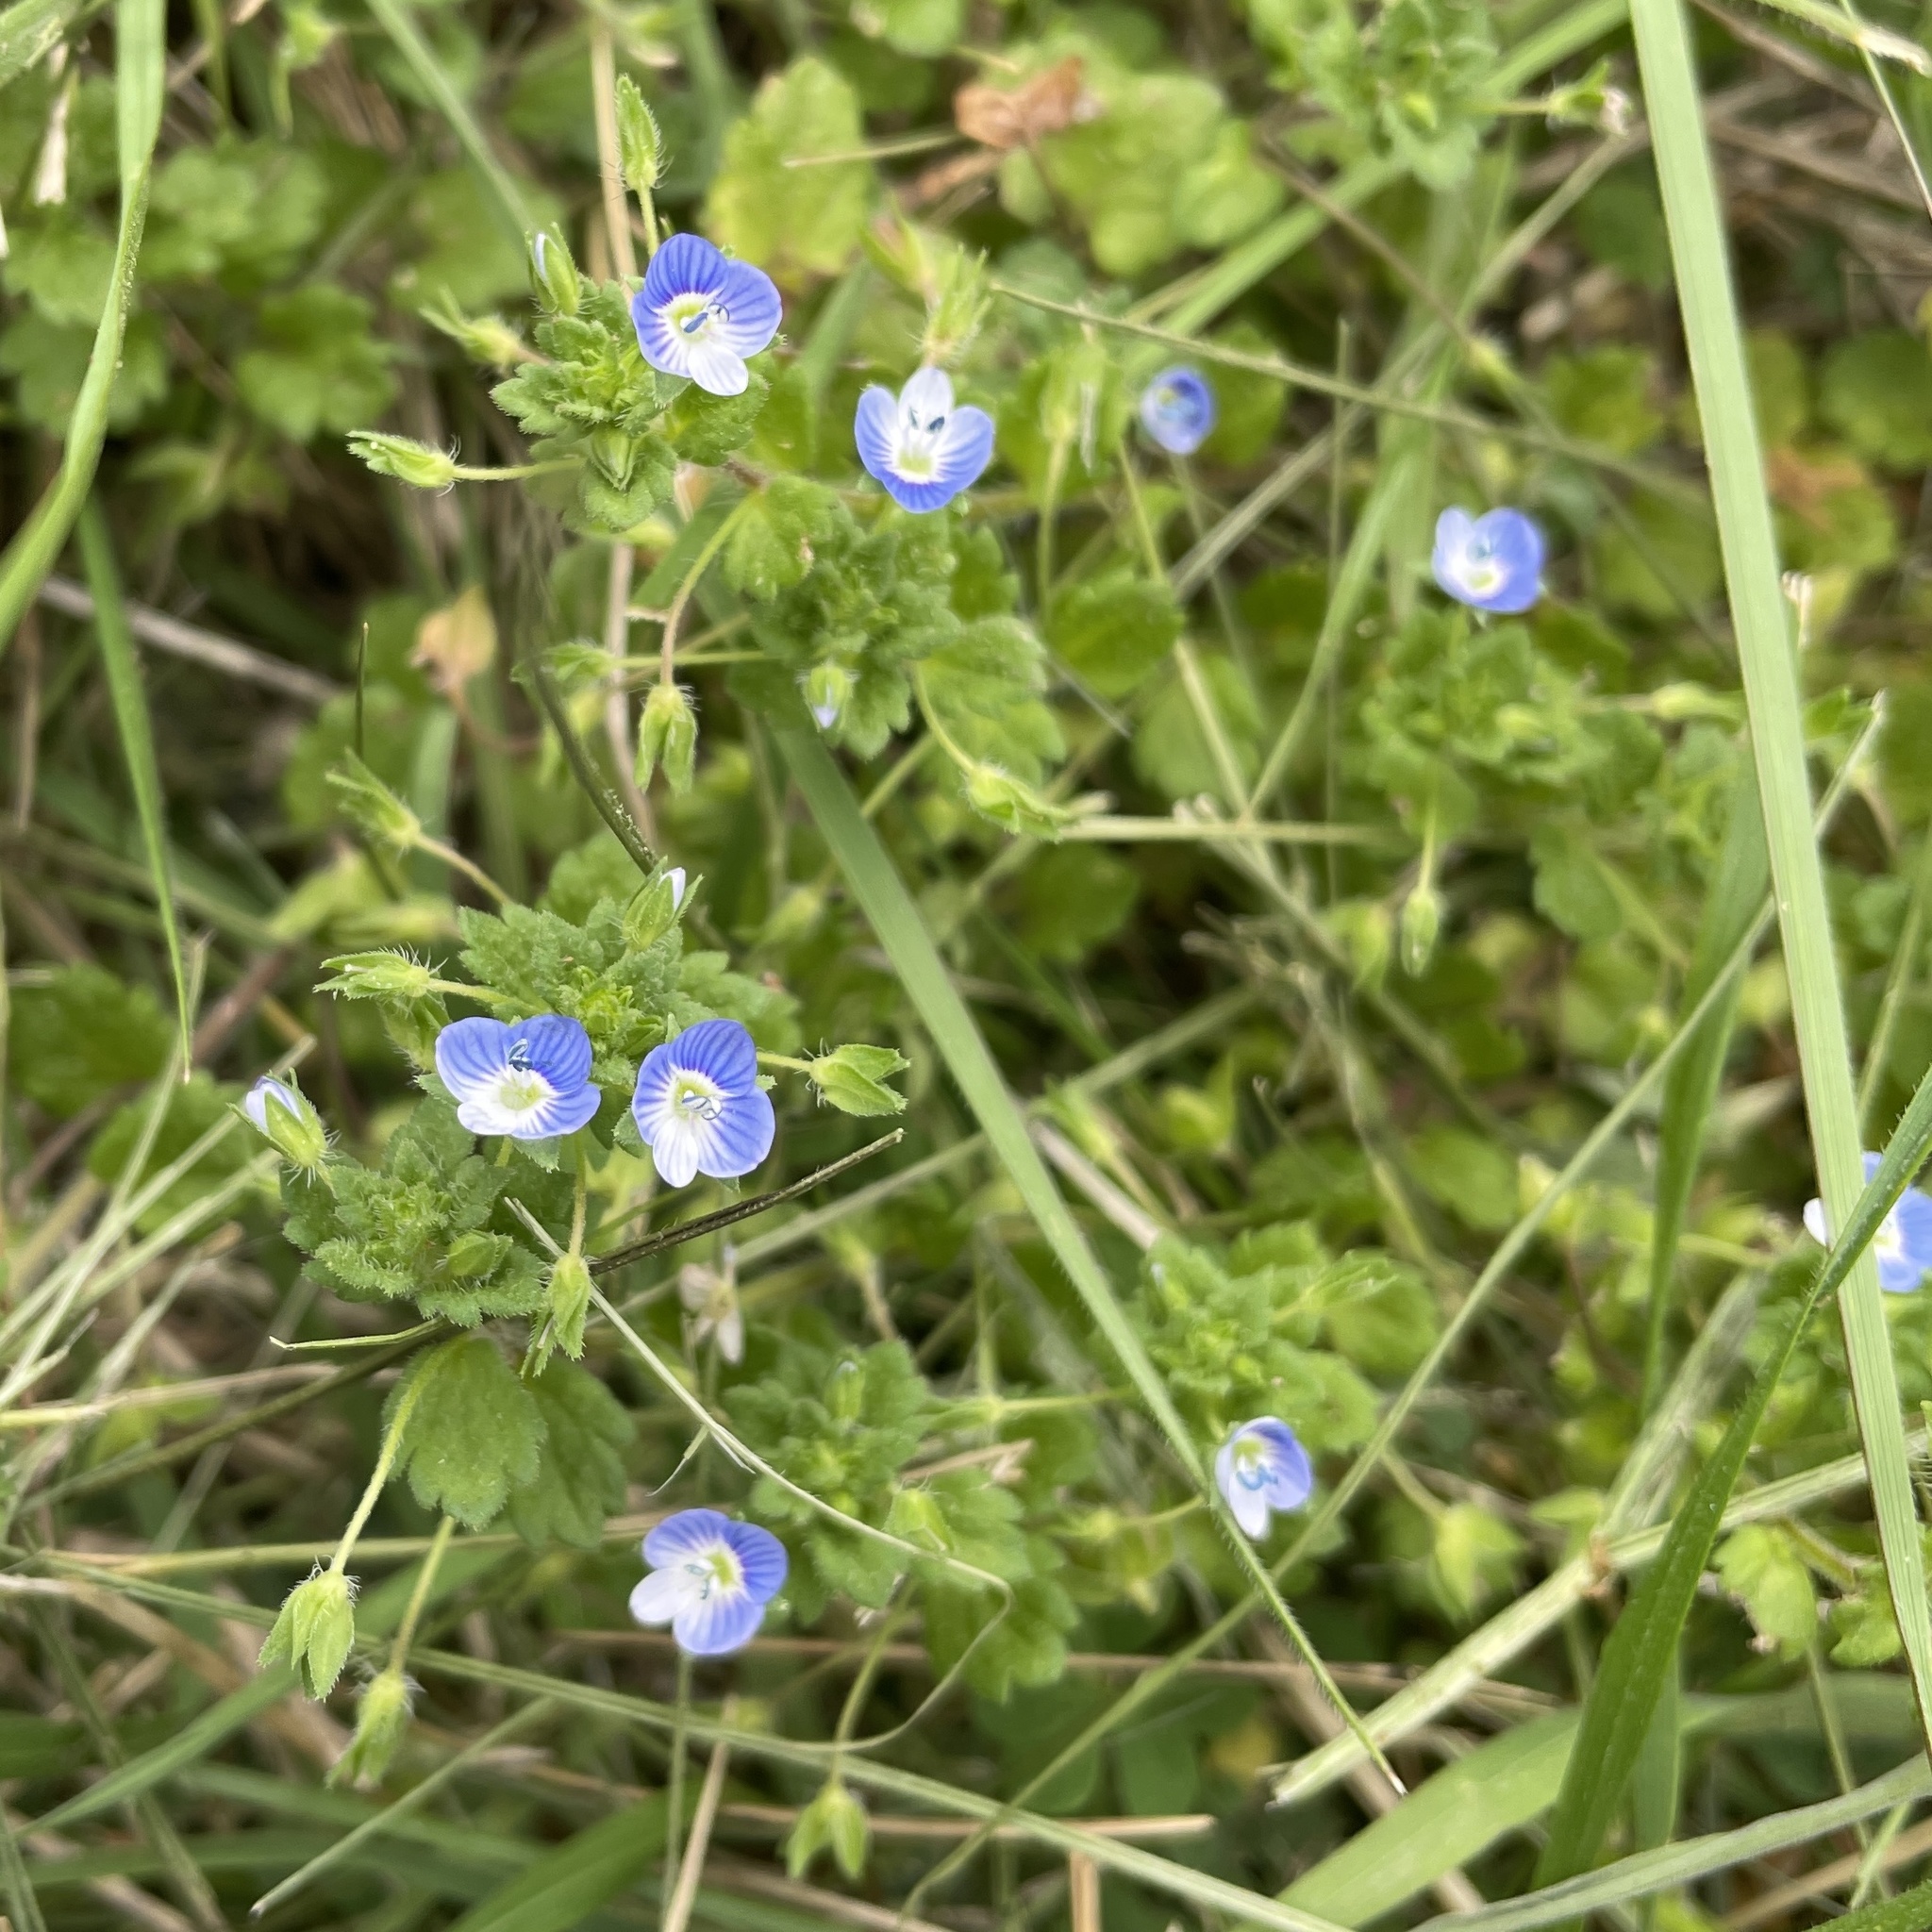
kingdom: Plantae
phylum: Tracheophyta
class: Magnoliopsida
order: Lamiales
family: Plantaginaceae
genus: Veronica
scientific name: Veronica persica
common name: Common field-speedwell
